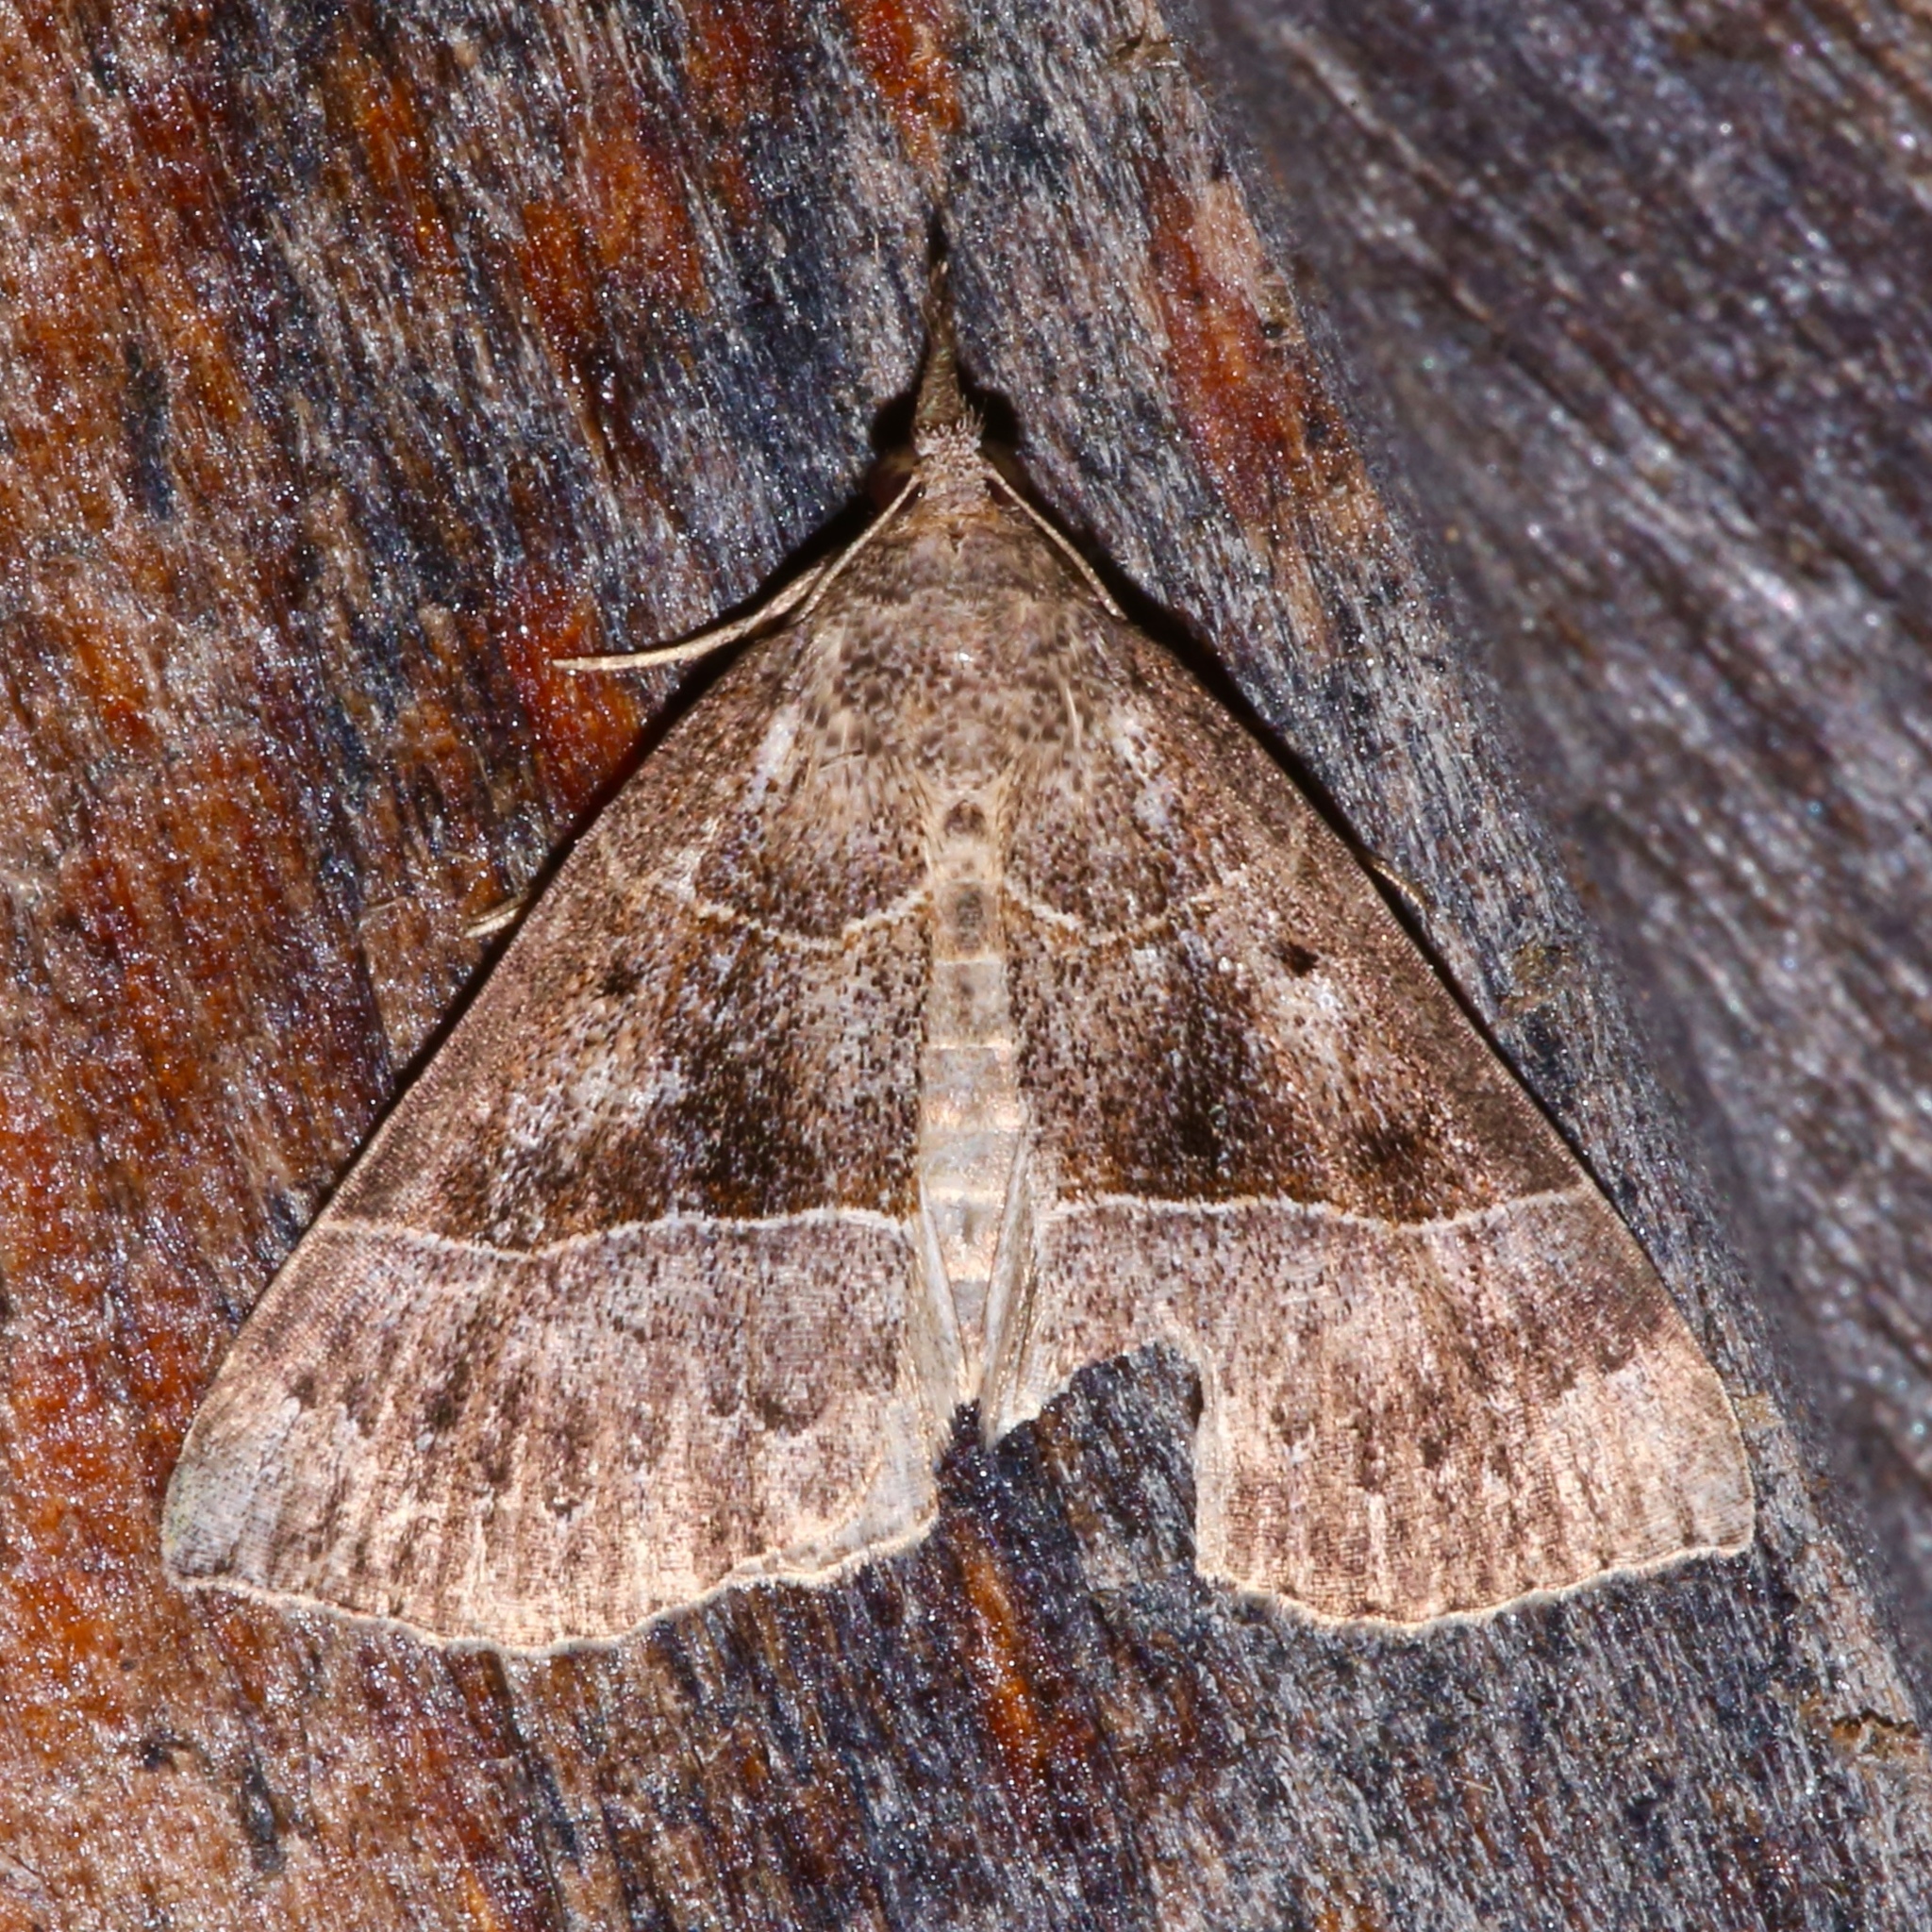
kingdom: Animalia
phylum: Arthropoda
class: Insecta
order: Lepidoptera
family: Erebidae
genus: Hypena
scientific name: Hypena deceptalis
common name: Deceptive snout
